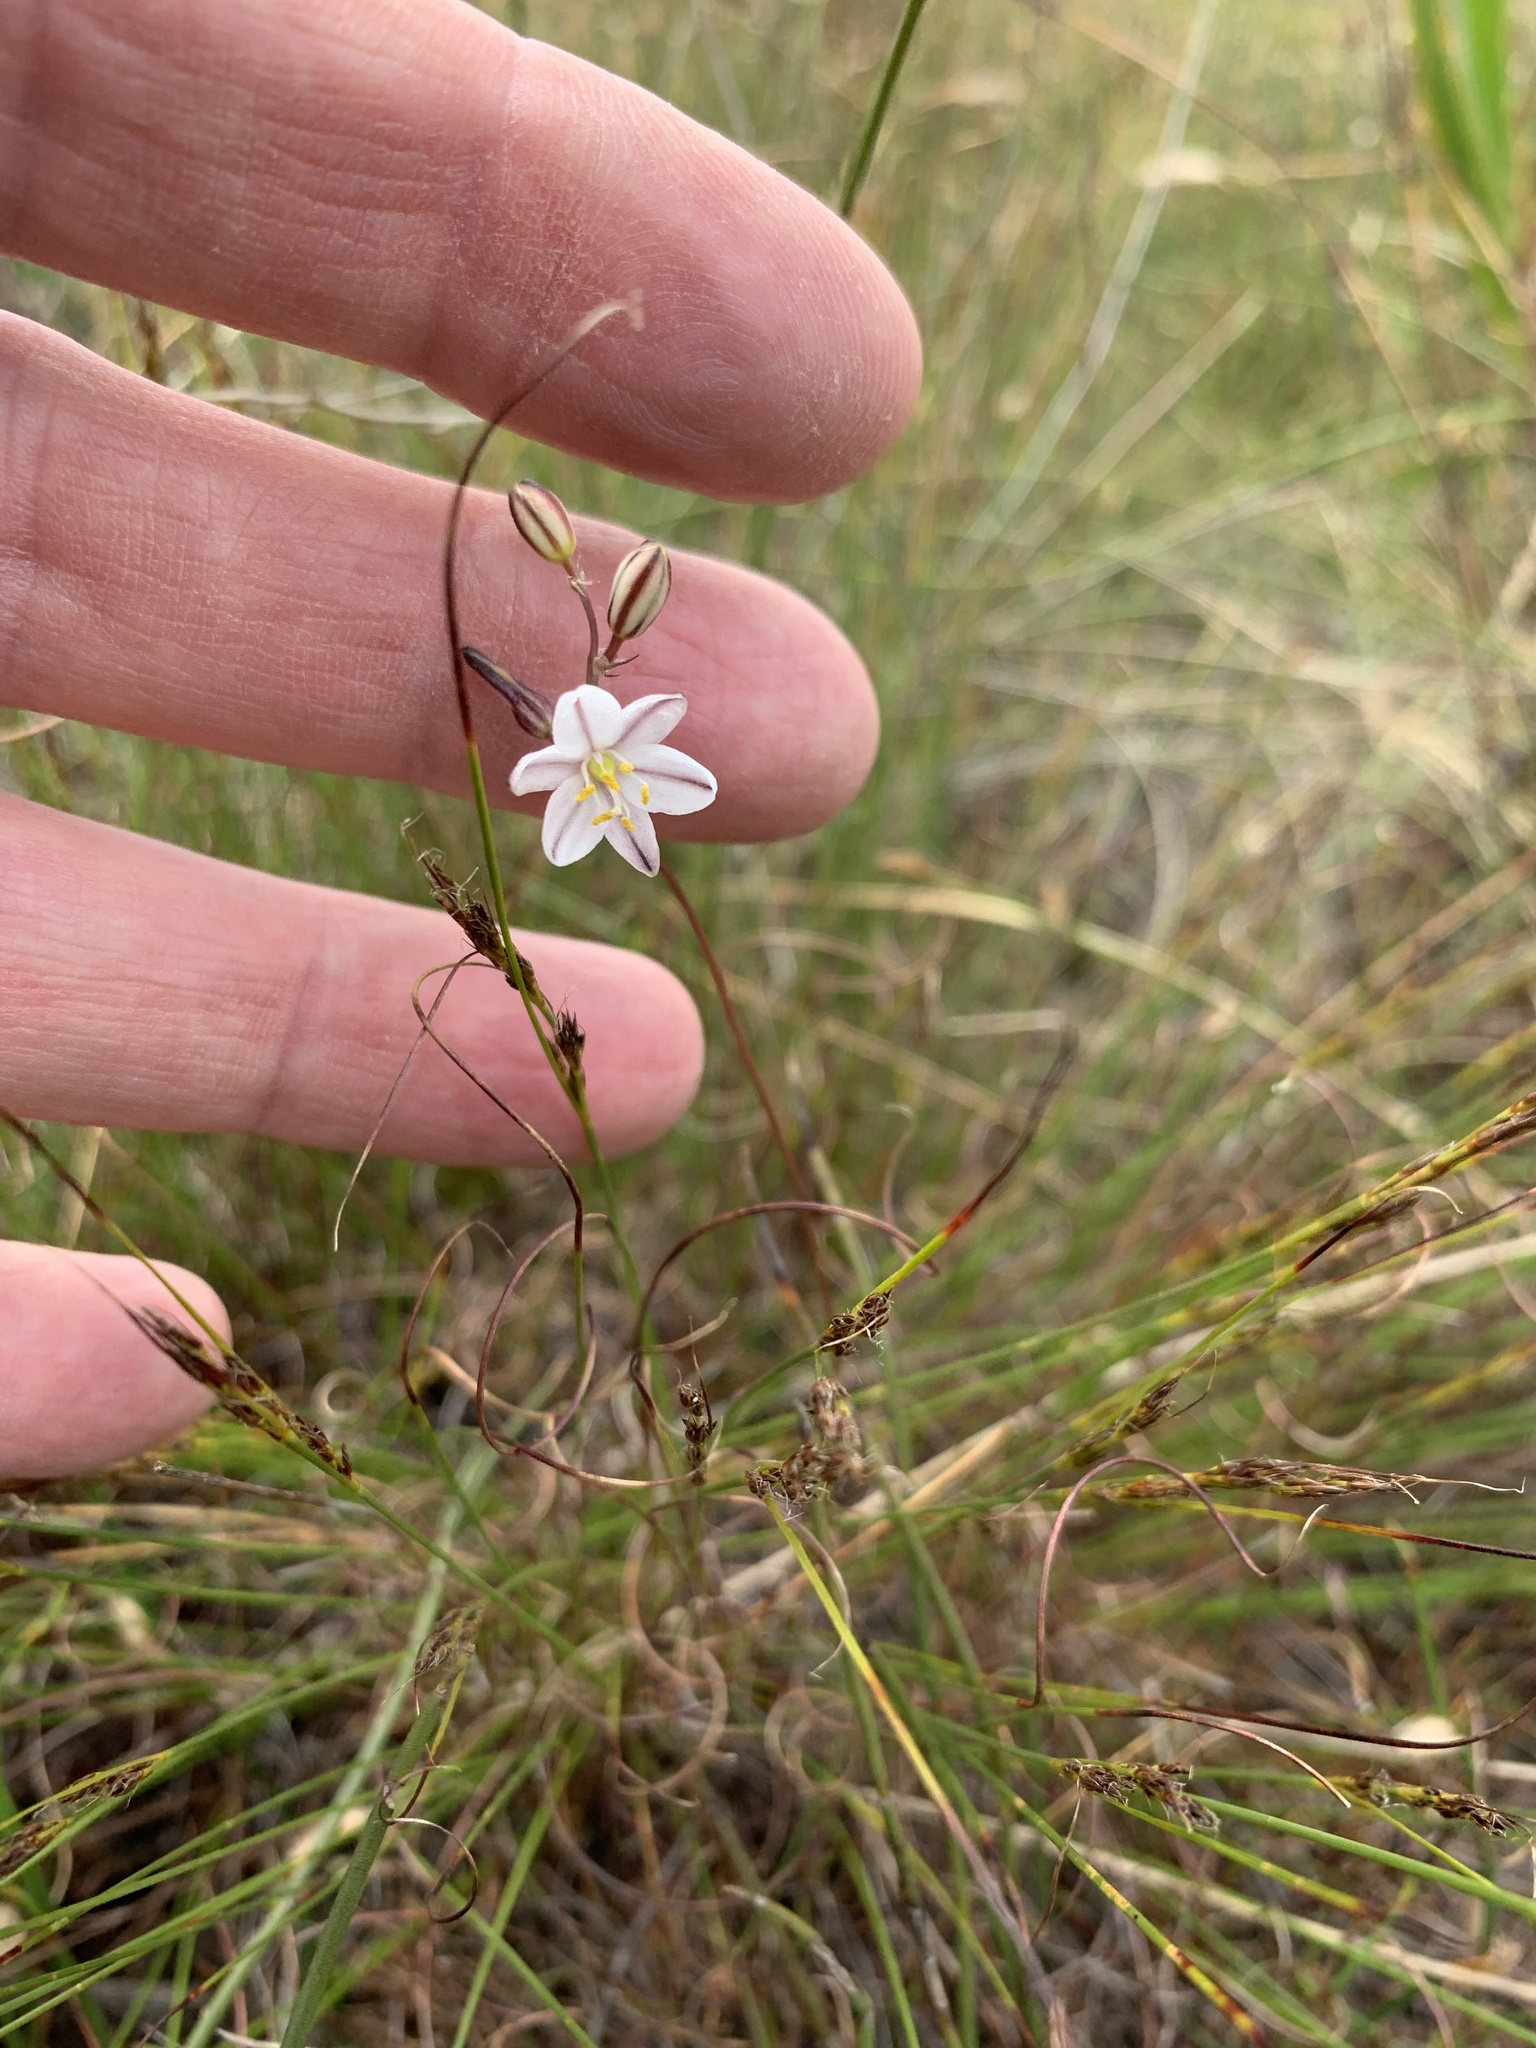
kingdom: Plantae
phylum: Tracheophyta
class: Liliopsida
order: Asparagales
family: Asparagaceae
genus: Drimia
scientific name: Drimia exuviata
